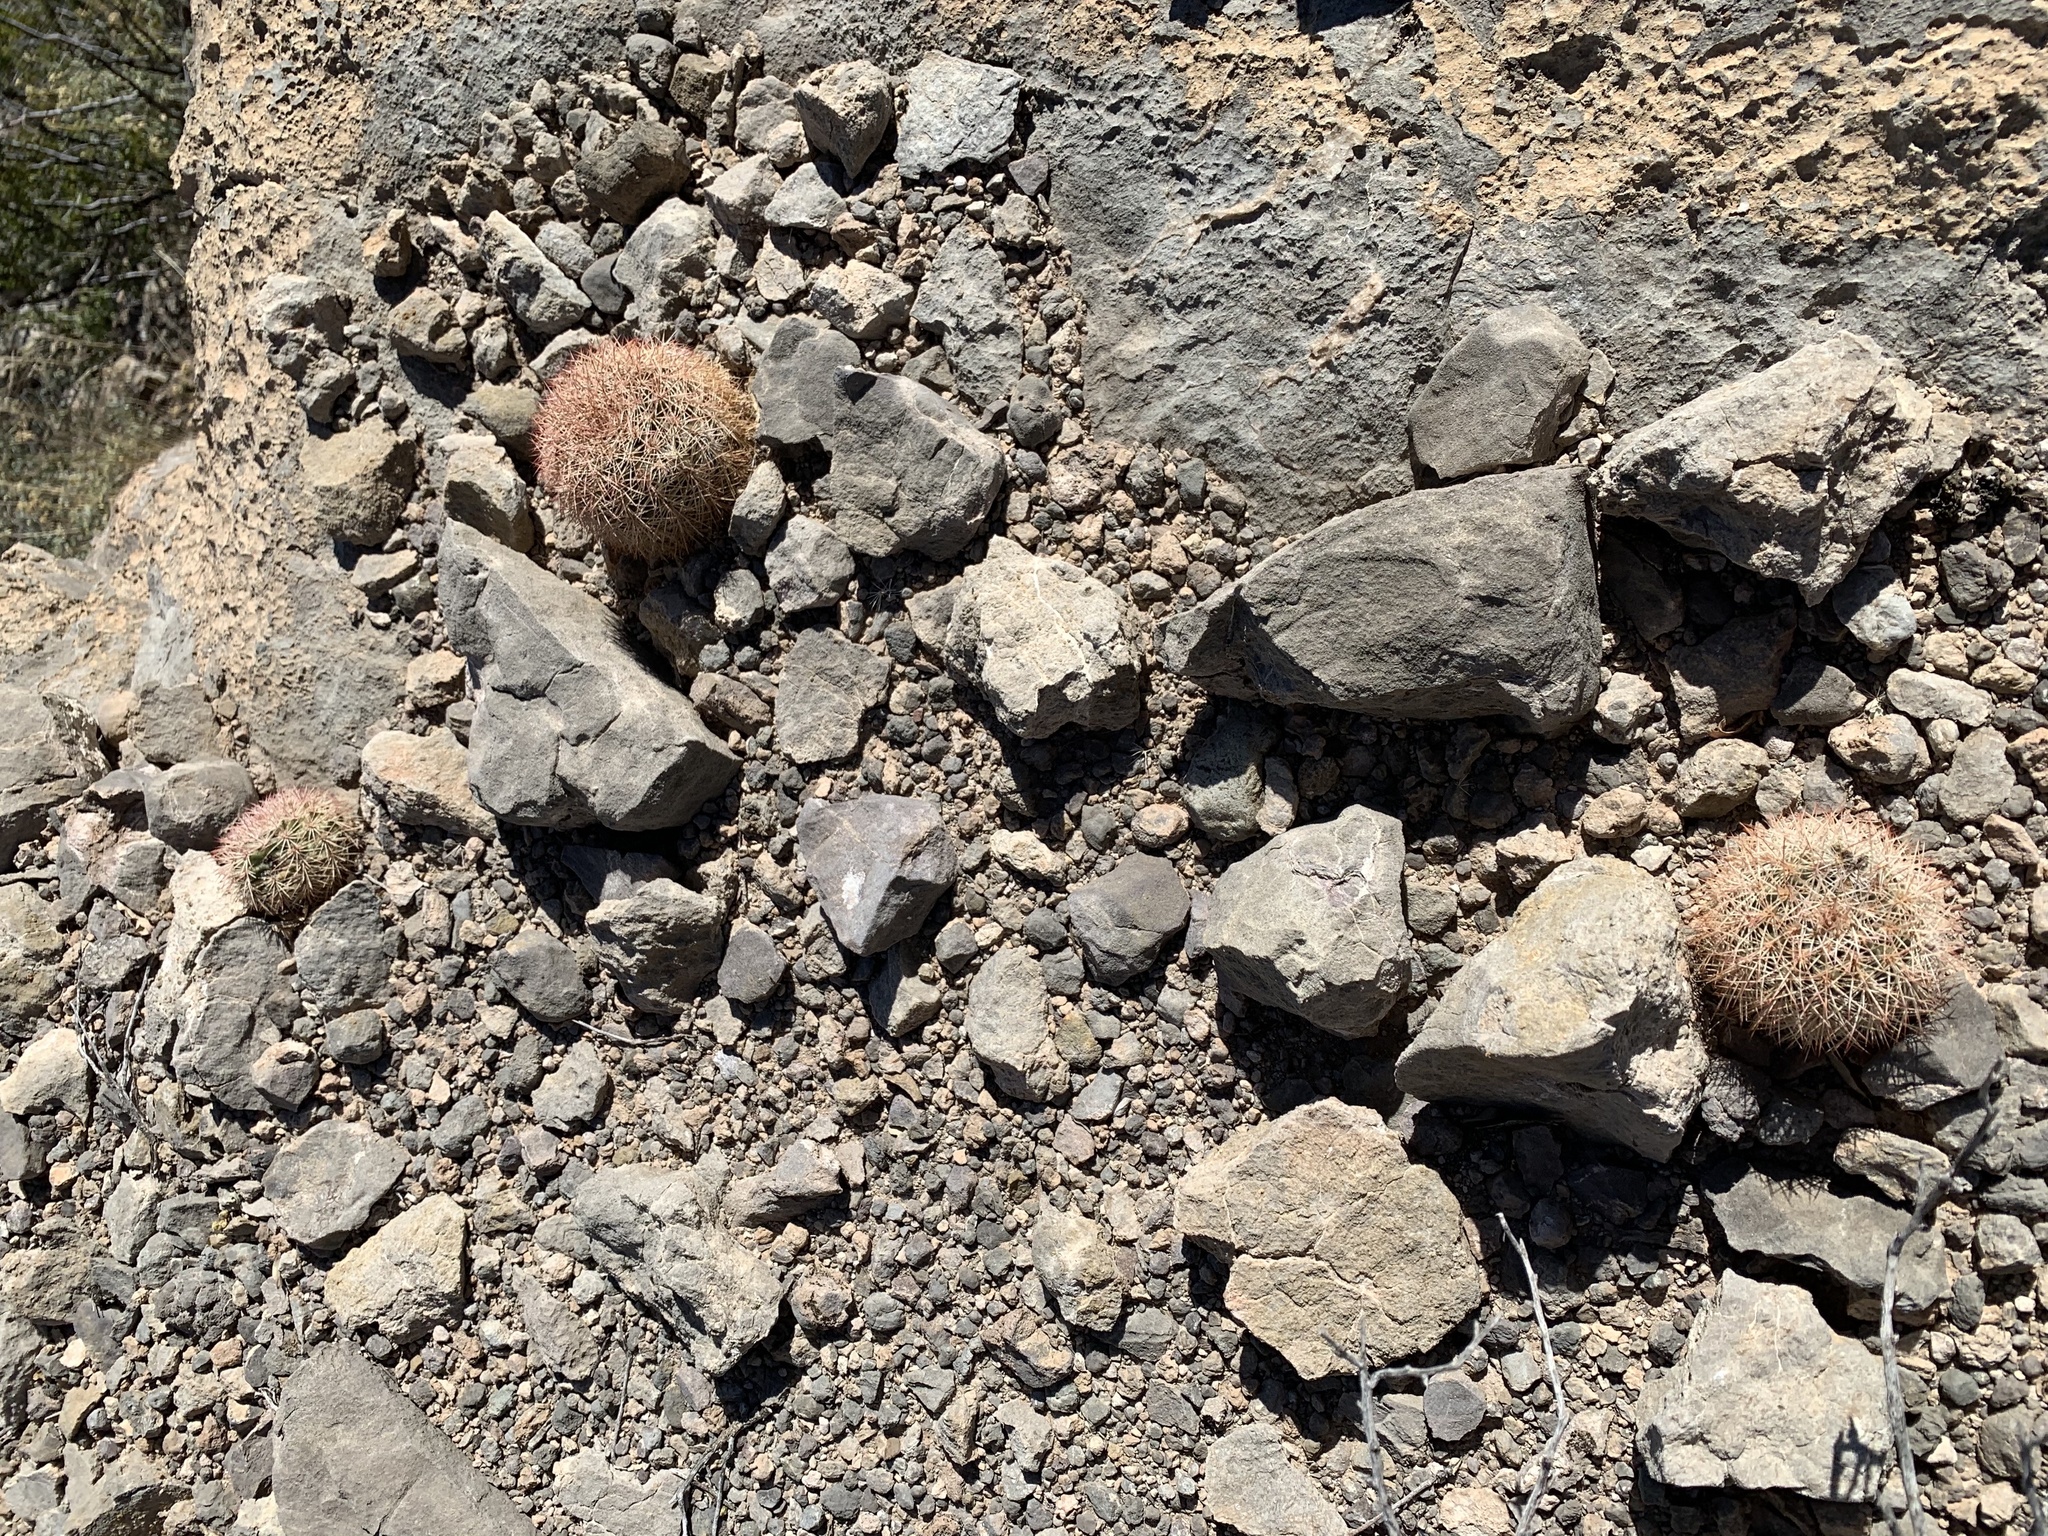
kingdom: Plantae
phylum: Tracheophyta
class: Magnoliopsida
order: Caryophyllales
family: Cactaceae
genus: Echinocereus
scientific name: Echinocereus dasyacanthus
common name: Spiny hedgehog cactus
